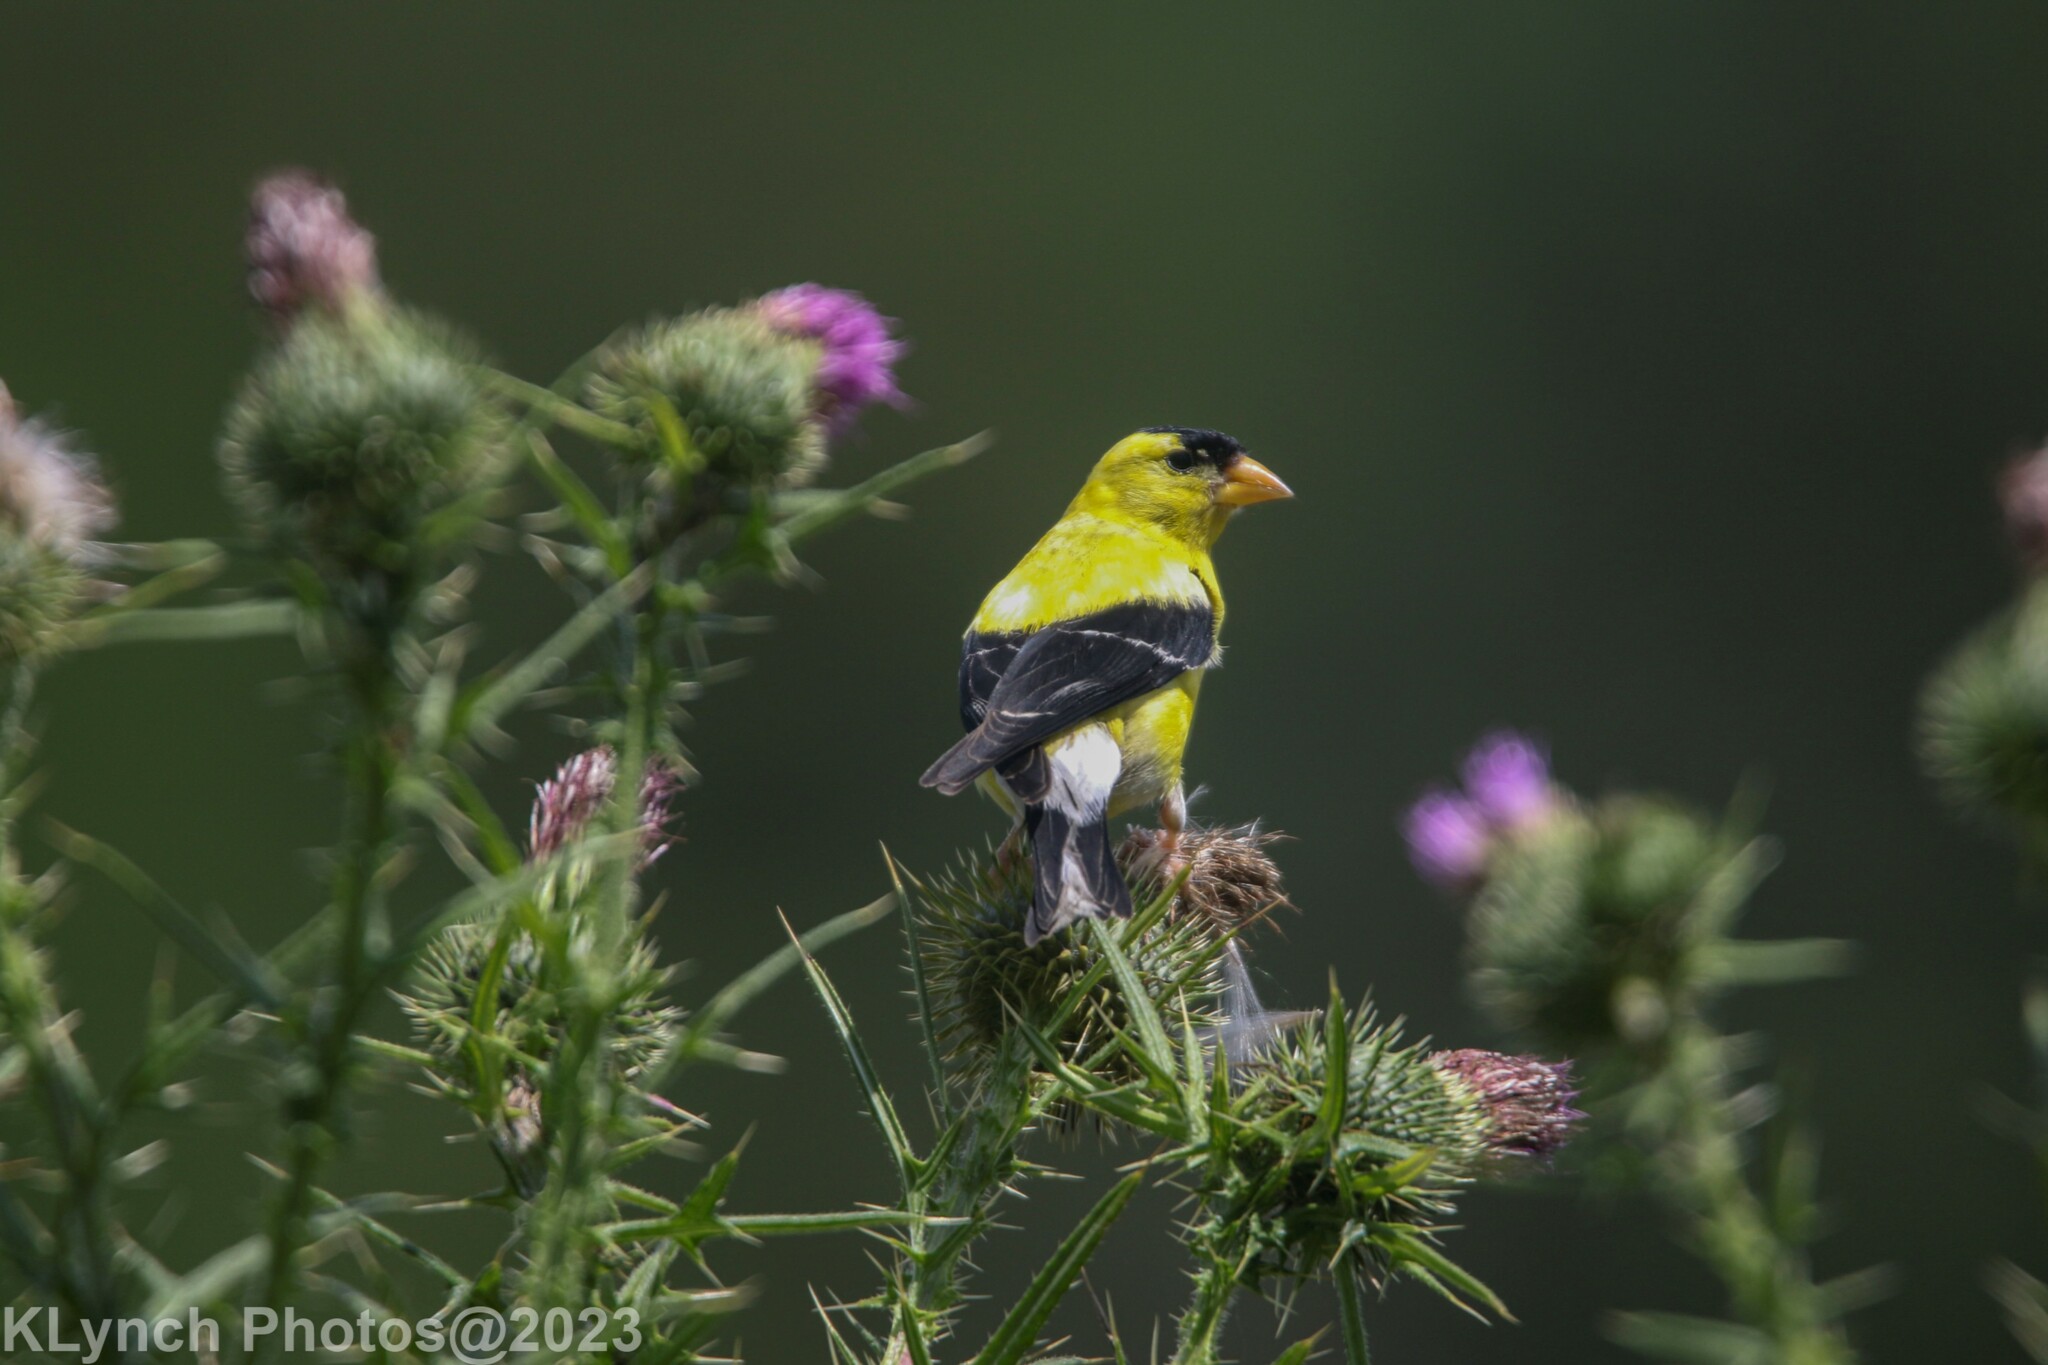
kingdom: Animalia
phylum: Chordata
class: Aves
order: Passeriformes
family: Fringillidae
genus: Spinus
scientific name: Spinus tristis
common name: American goldfinch
